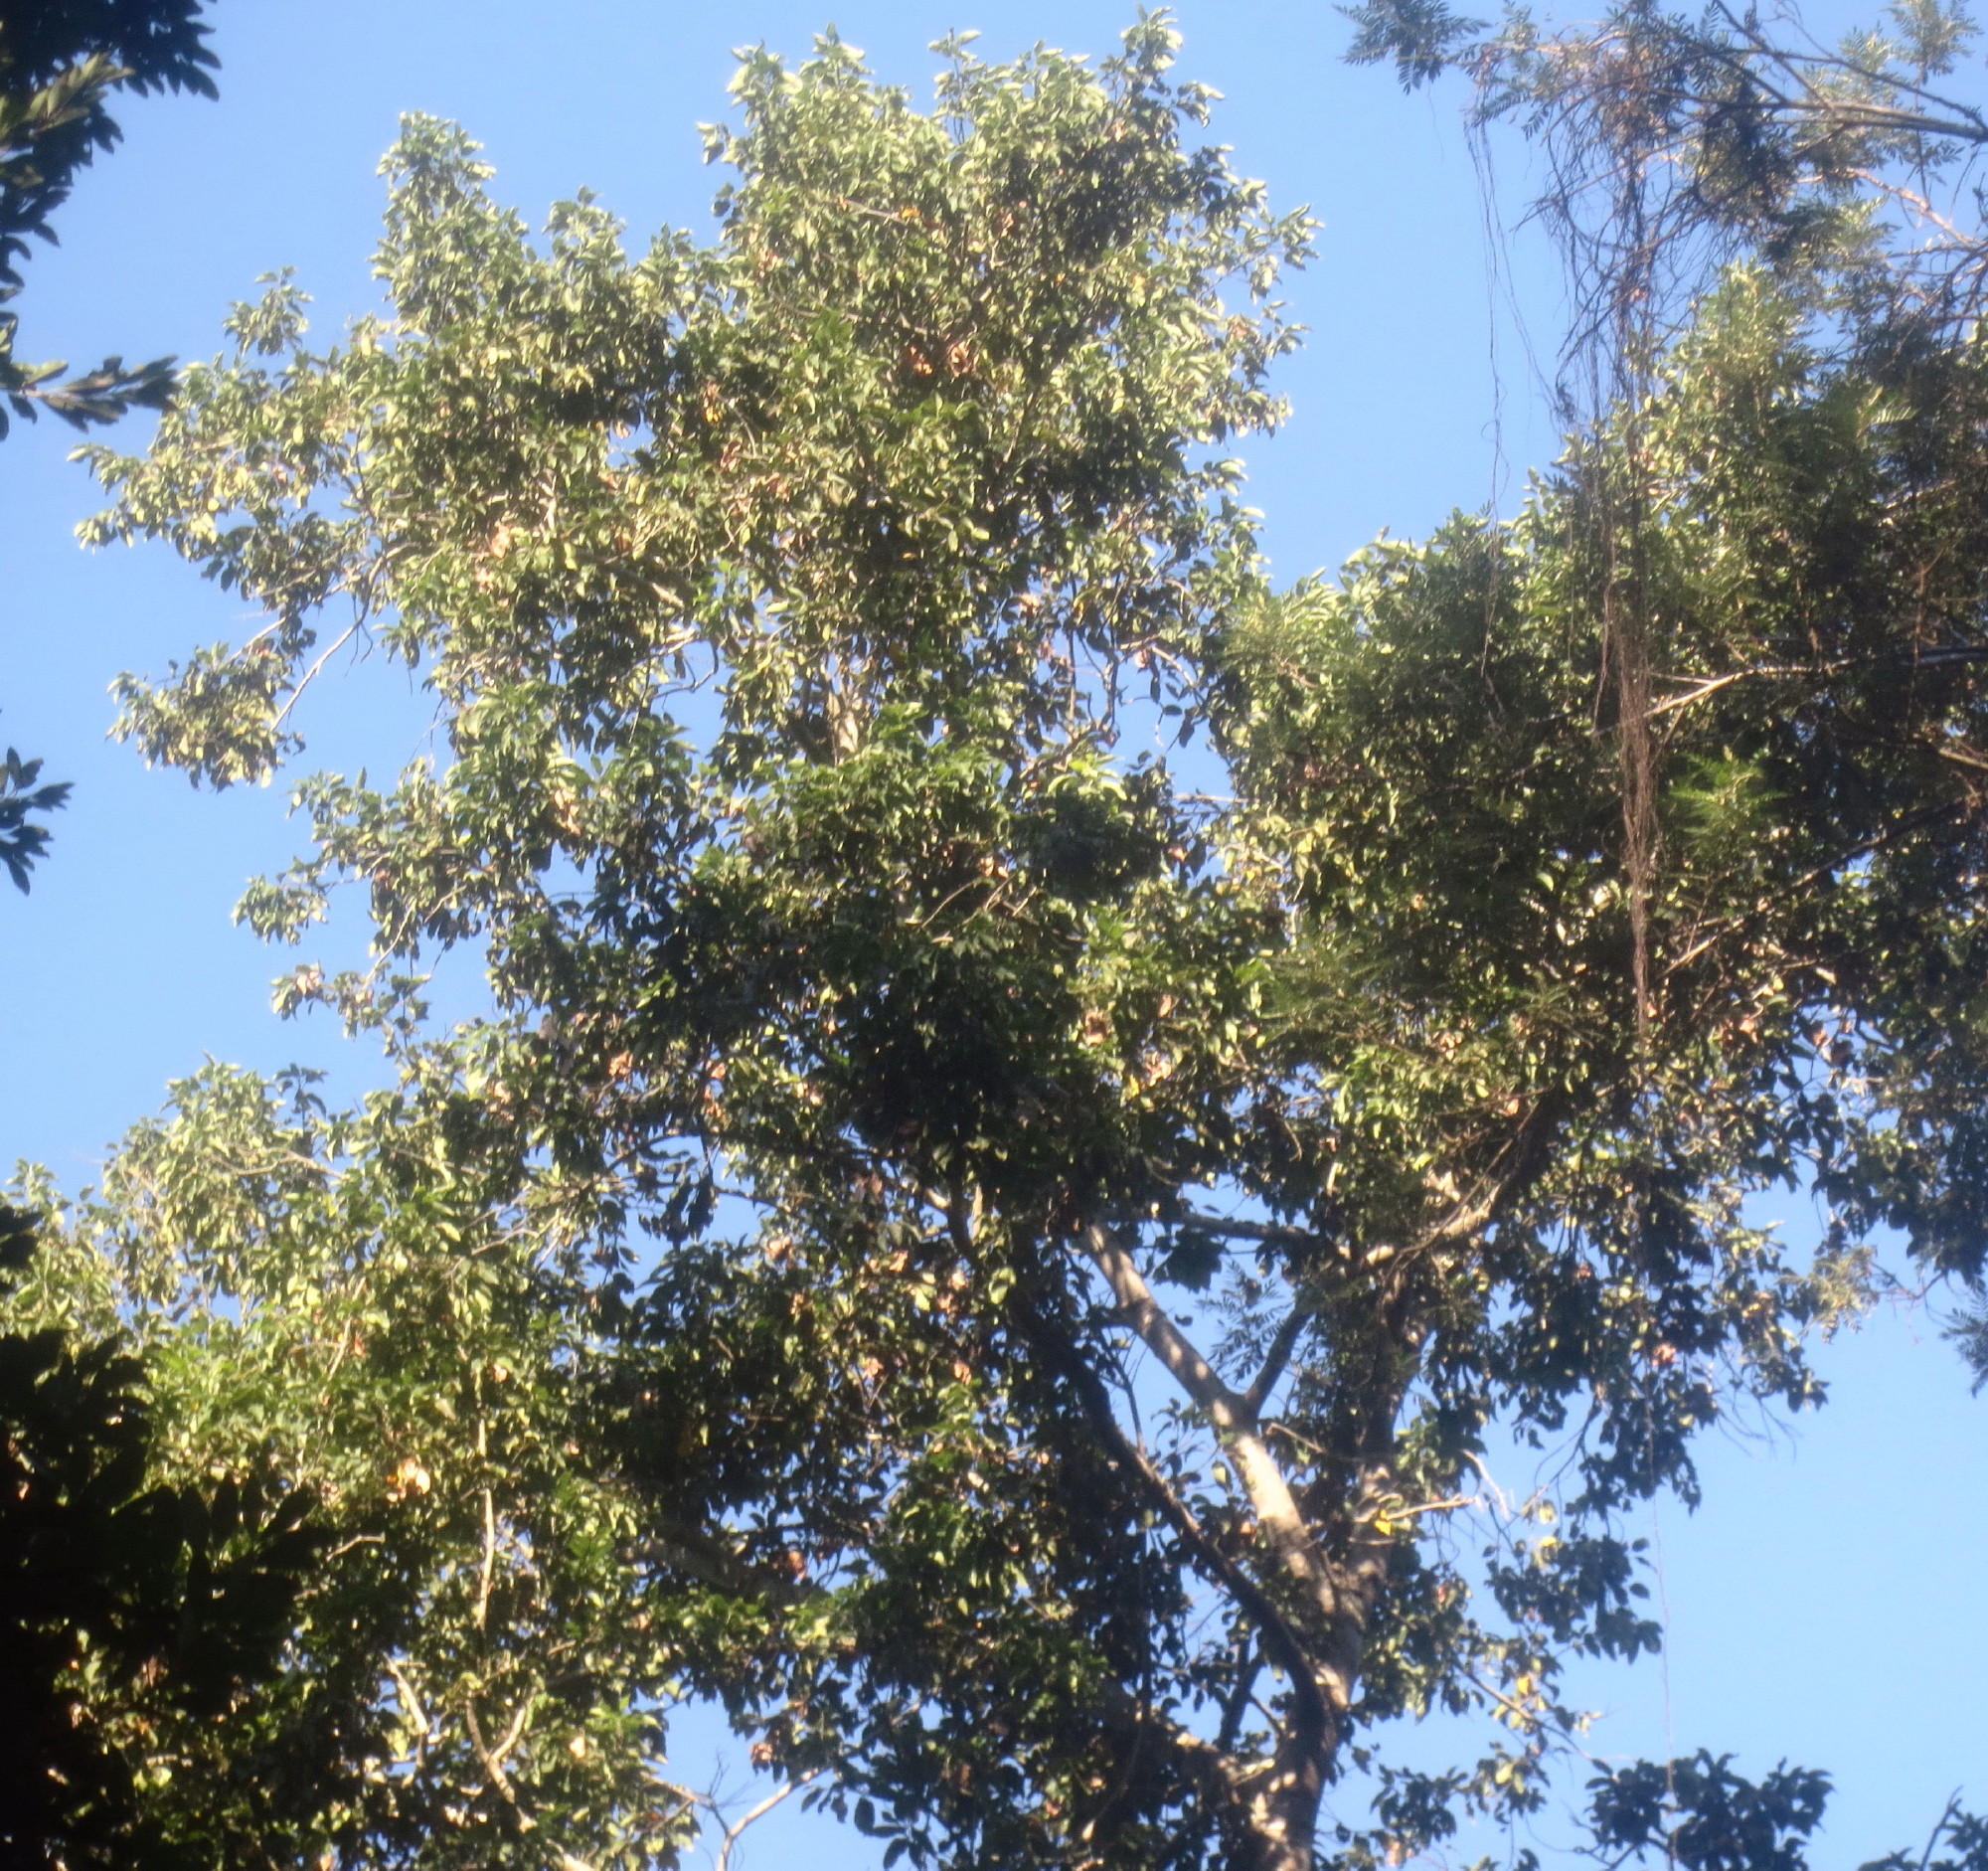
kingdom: Plantae
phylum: Tracheophyta
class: Magnoliopsida
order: Laurales
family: Lauraceae
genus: Ocotea
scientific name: Ocotea bullata
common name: Black stinkwood
